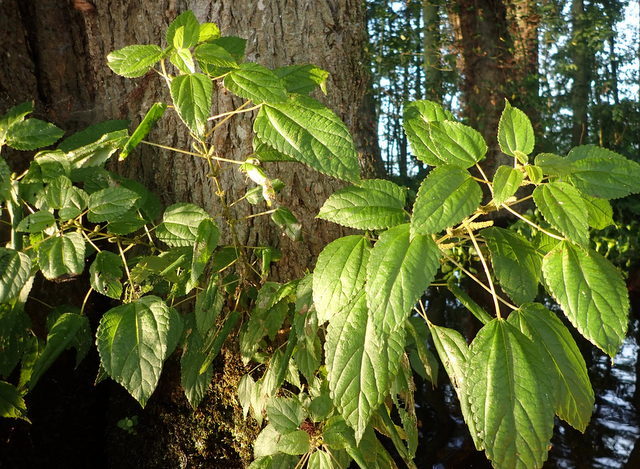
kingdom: Plantae
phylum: Tracheophyta
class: Magnoliopsida
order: Rosales
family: Urticaceae
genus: Boehmeria
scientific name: Boehmeria cylindrica
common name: Bog-hemp
